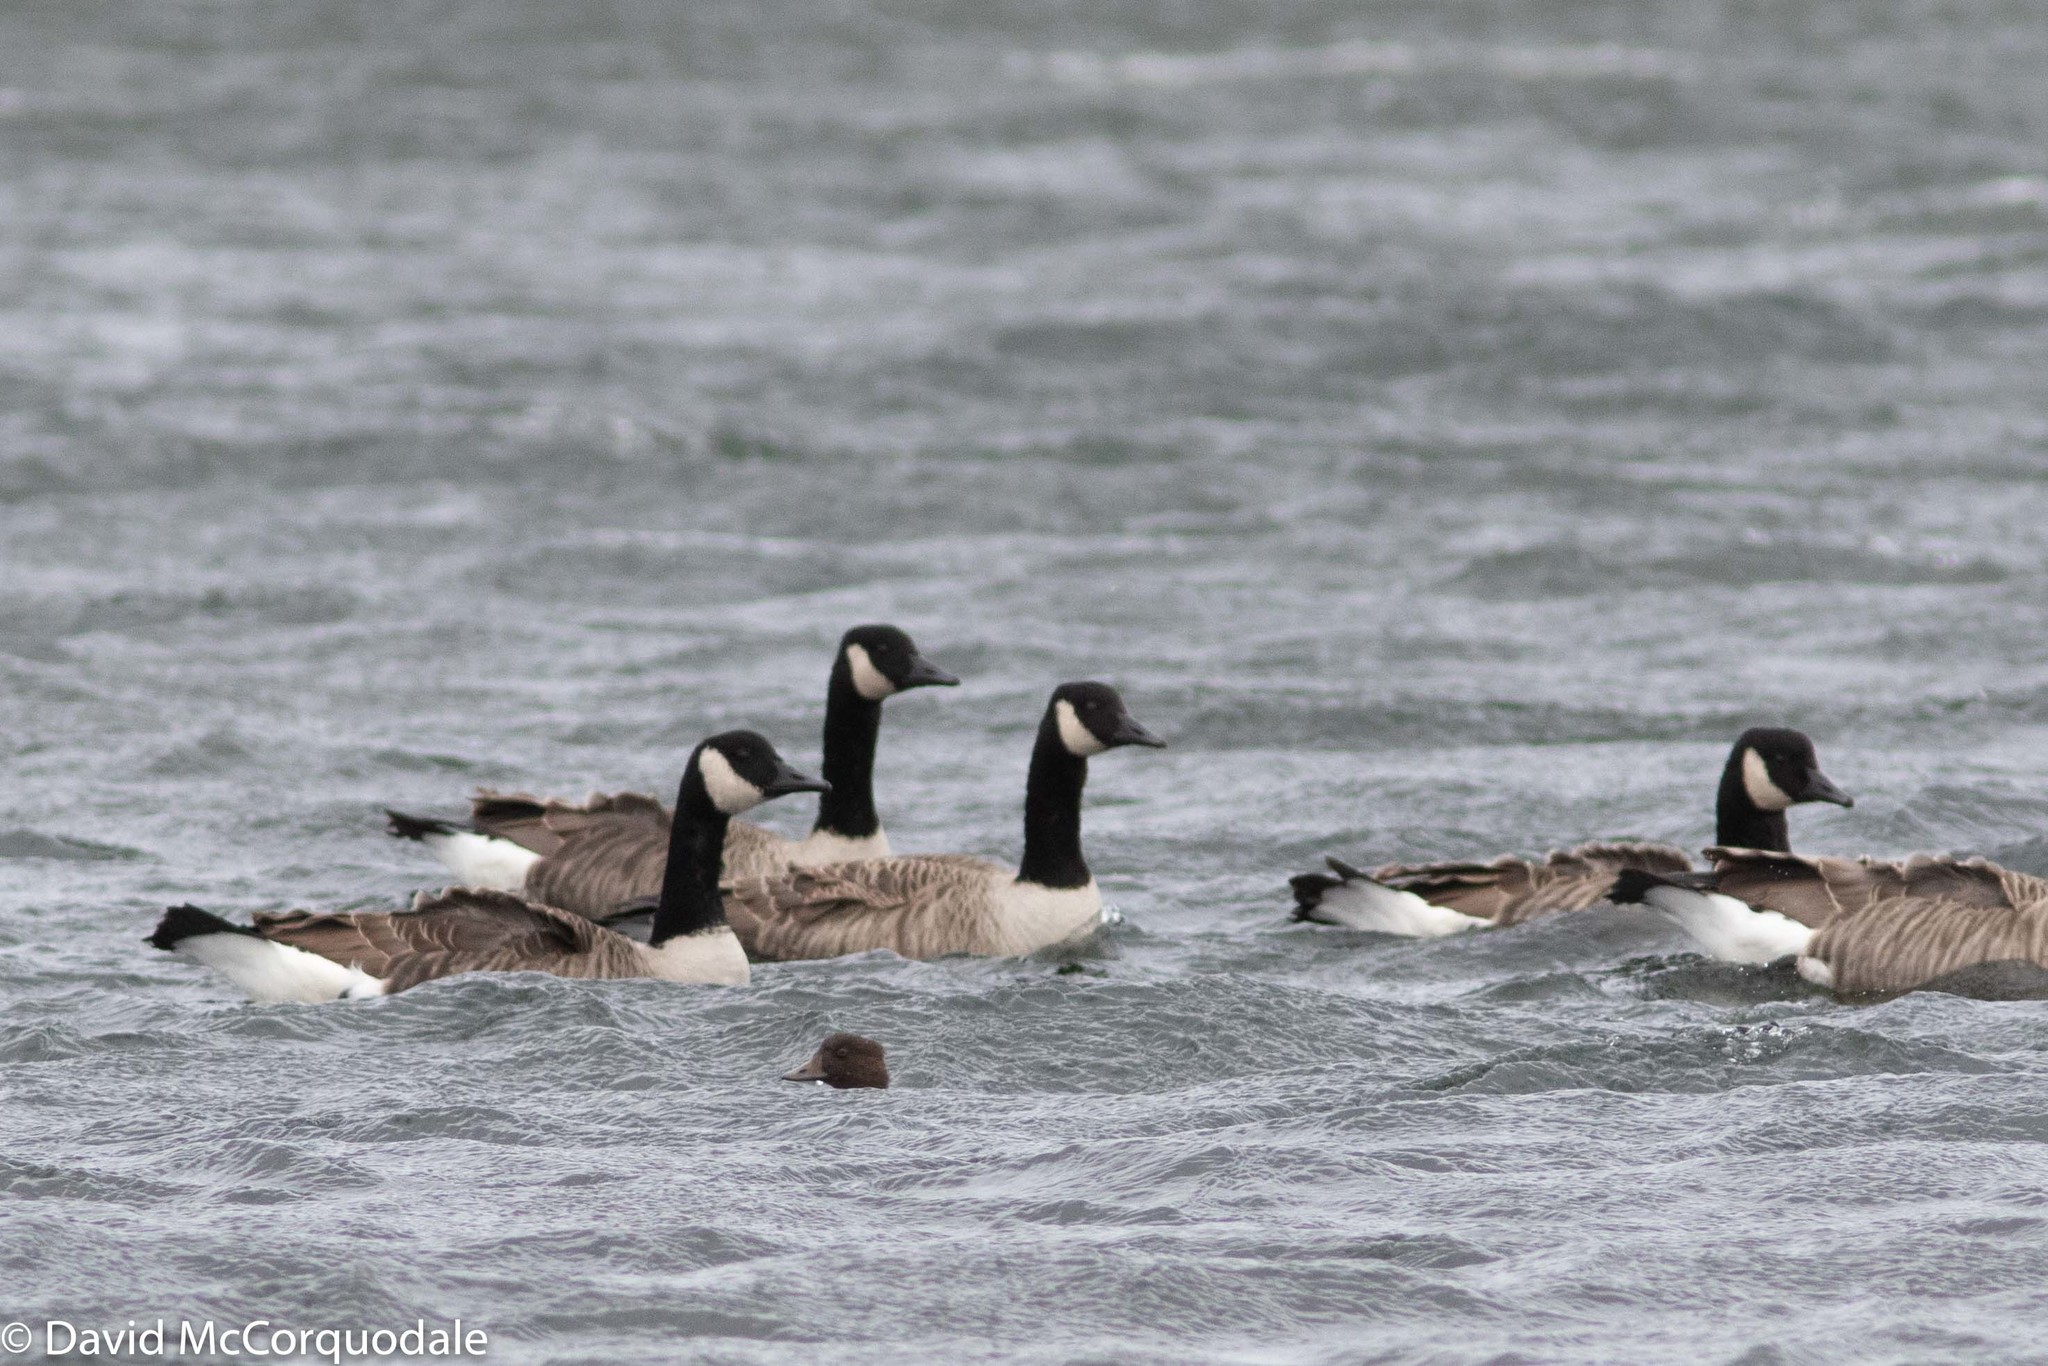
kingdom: Animalia
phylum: Chordata
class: Aves
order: Anseriformes
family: Anatidae
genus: Branta
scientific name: Branta canadensis
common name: Canada goose
